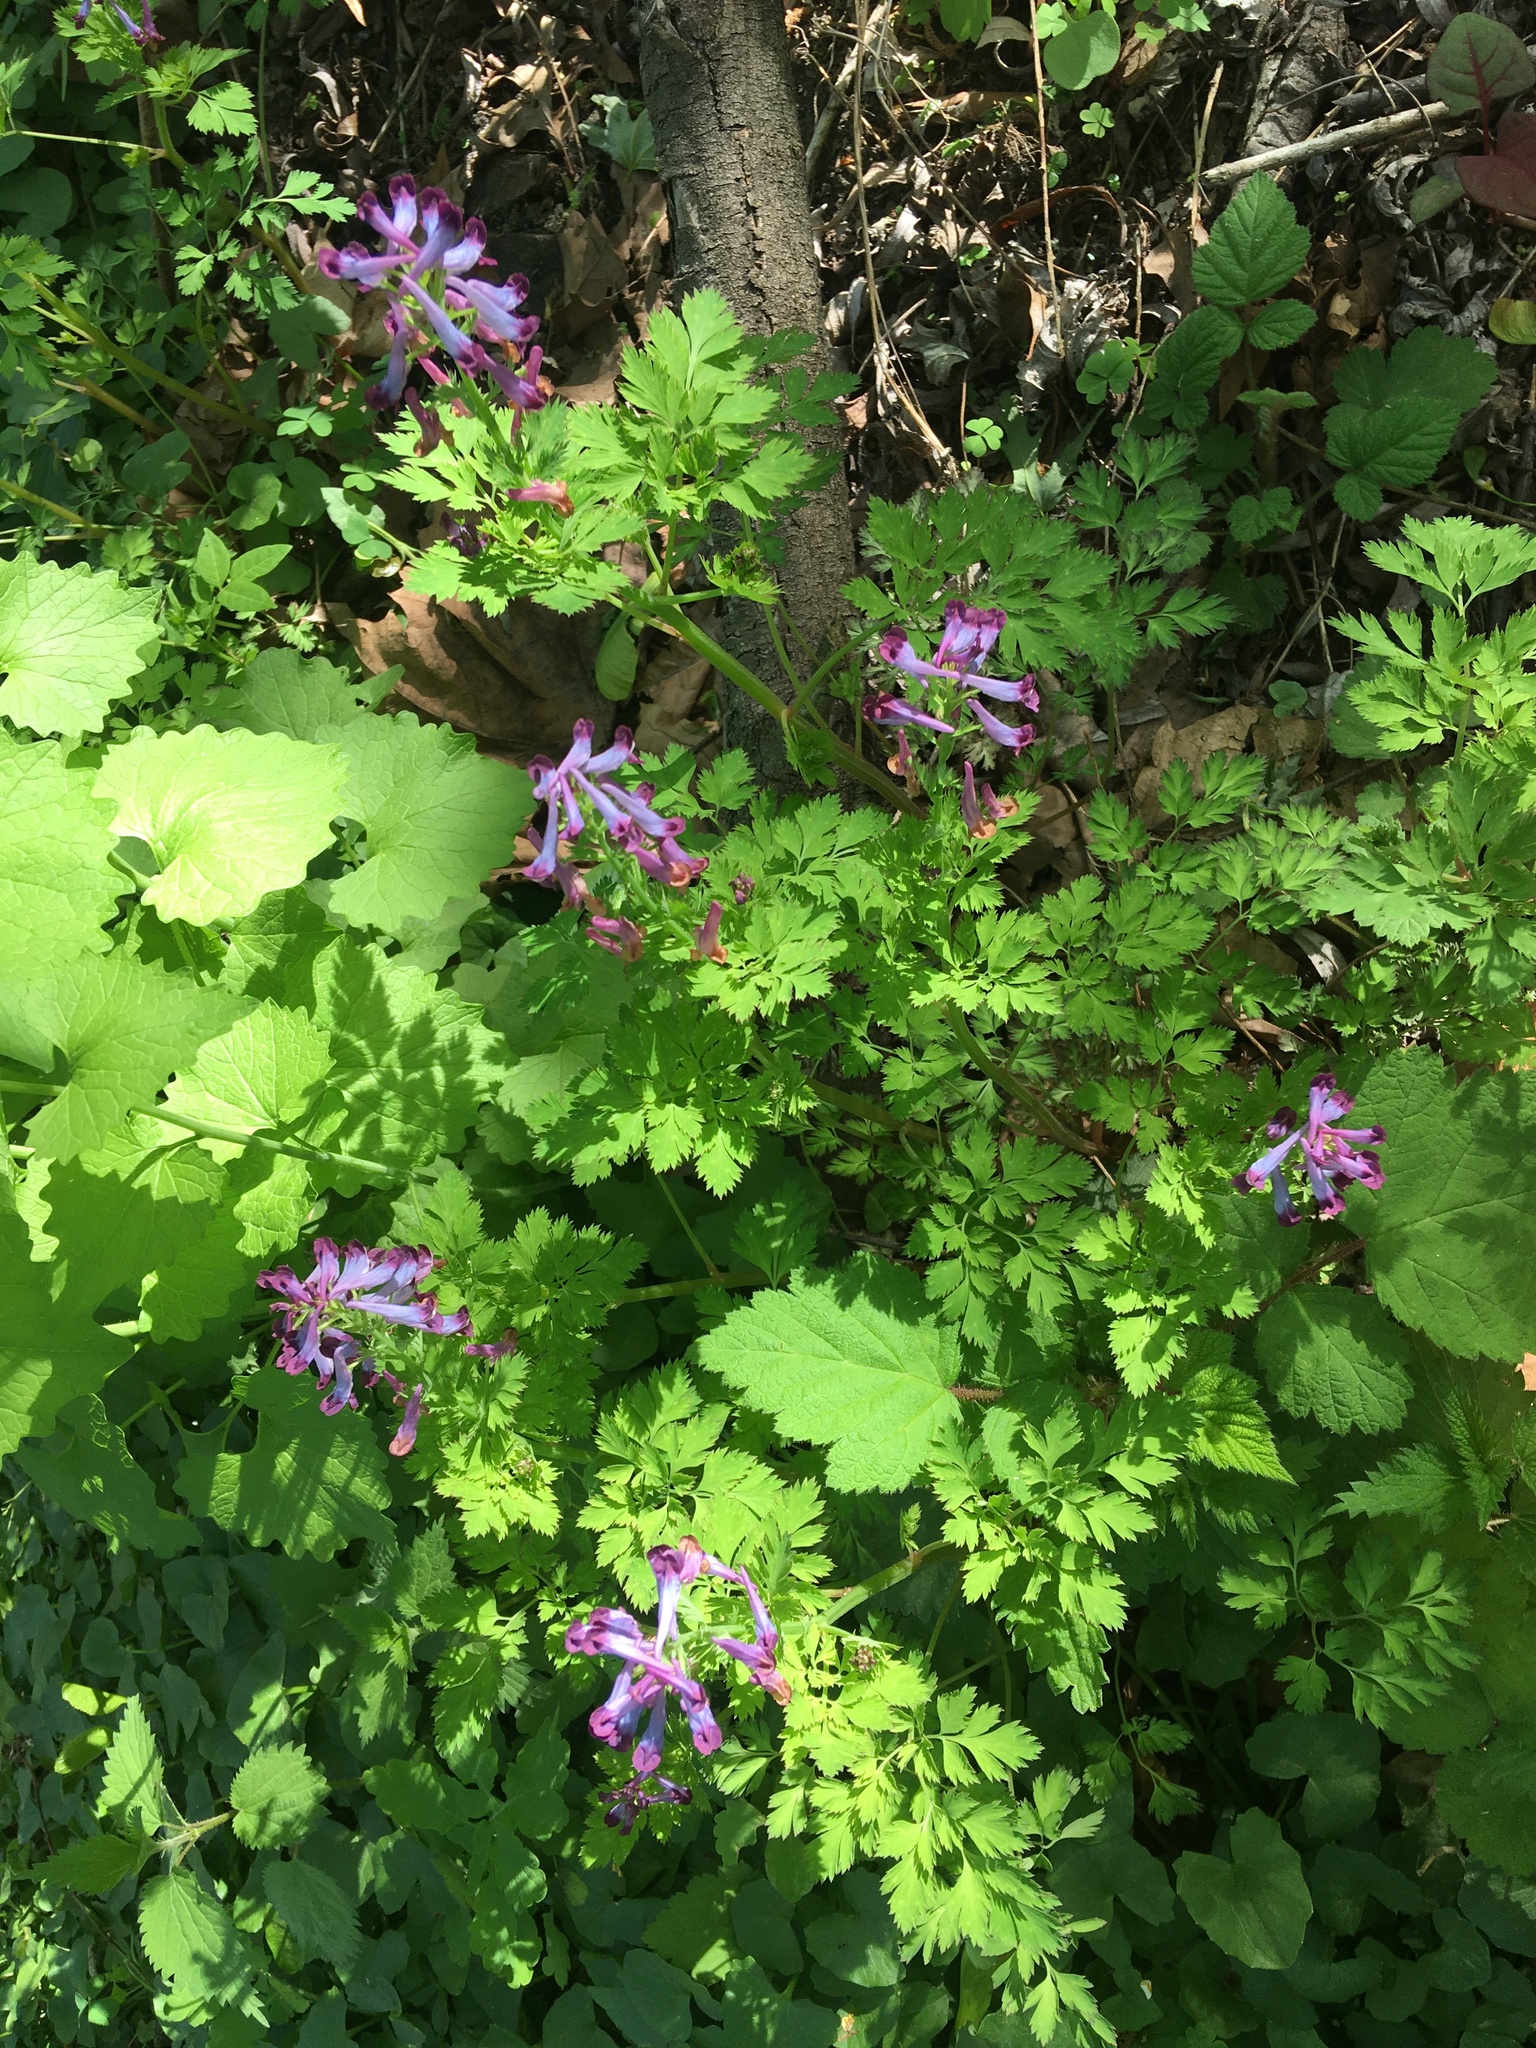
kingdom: Plantae
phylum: Tracheophyta
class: Magnoliopsida
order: Ranunculales
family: Papaveraceae
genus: Corydalis
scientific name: Corydalis incisa
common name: Incised fumewort
